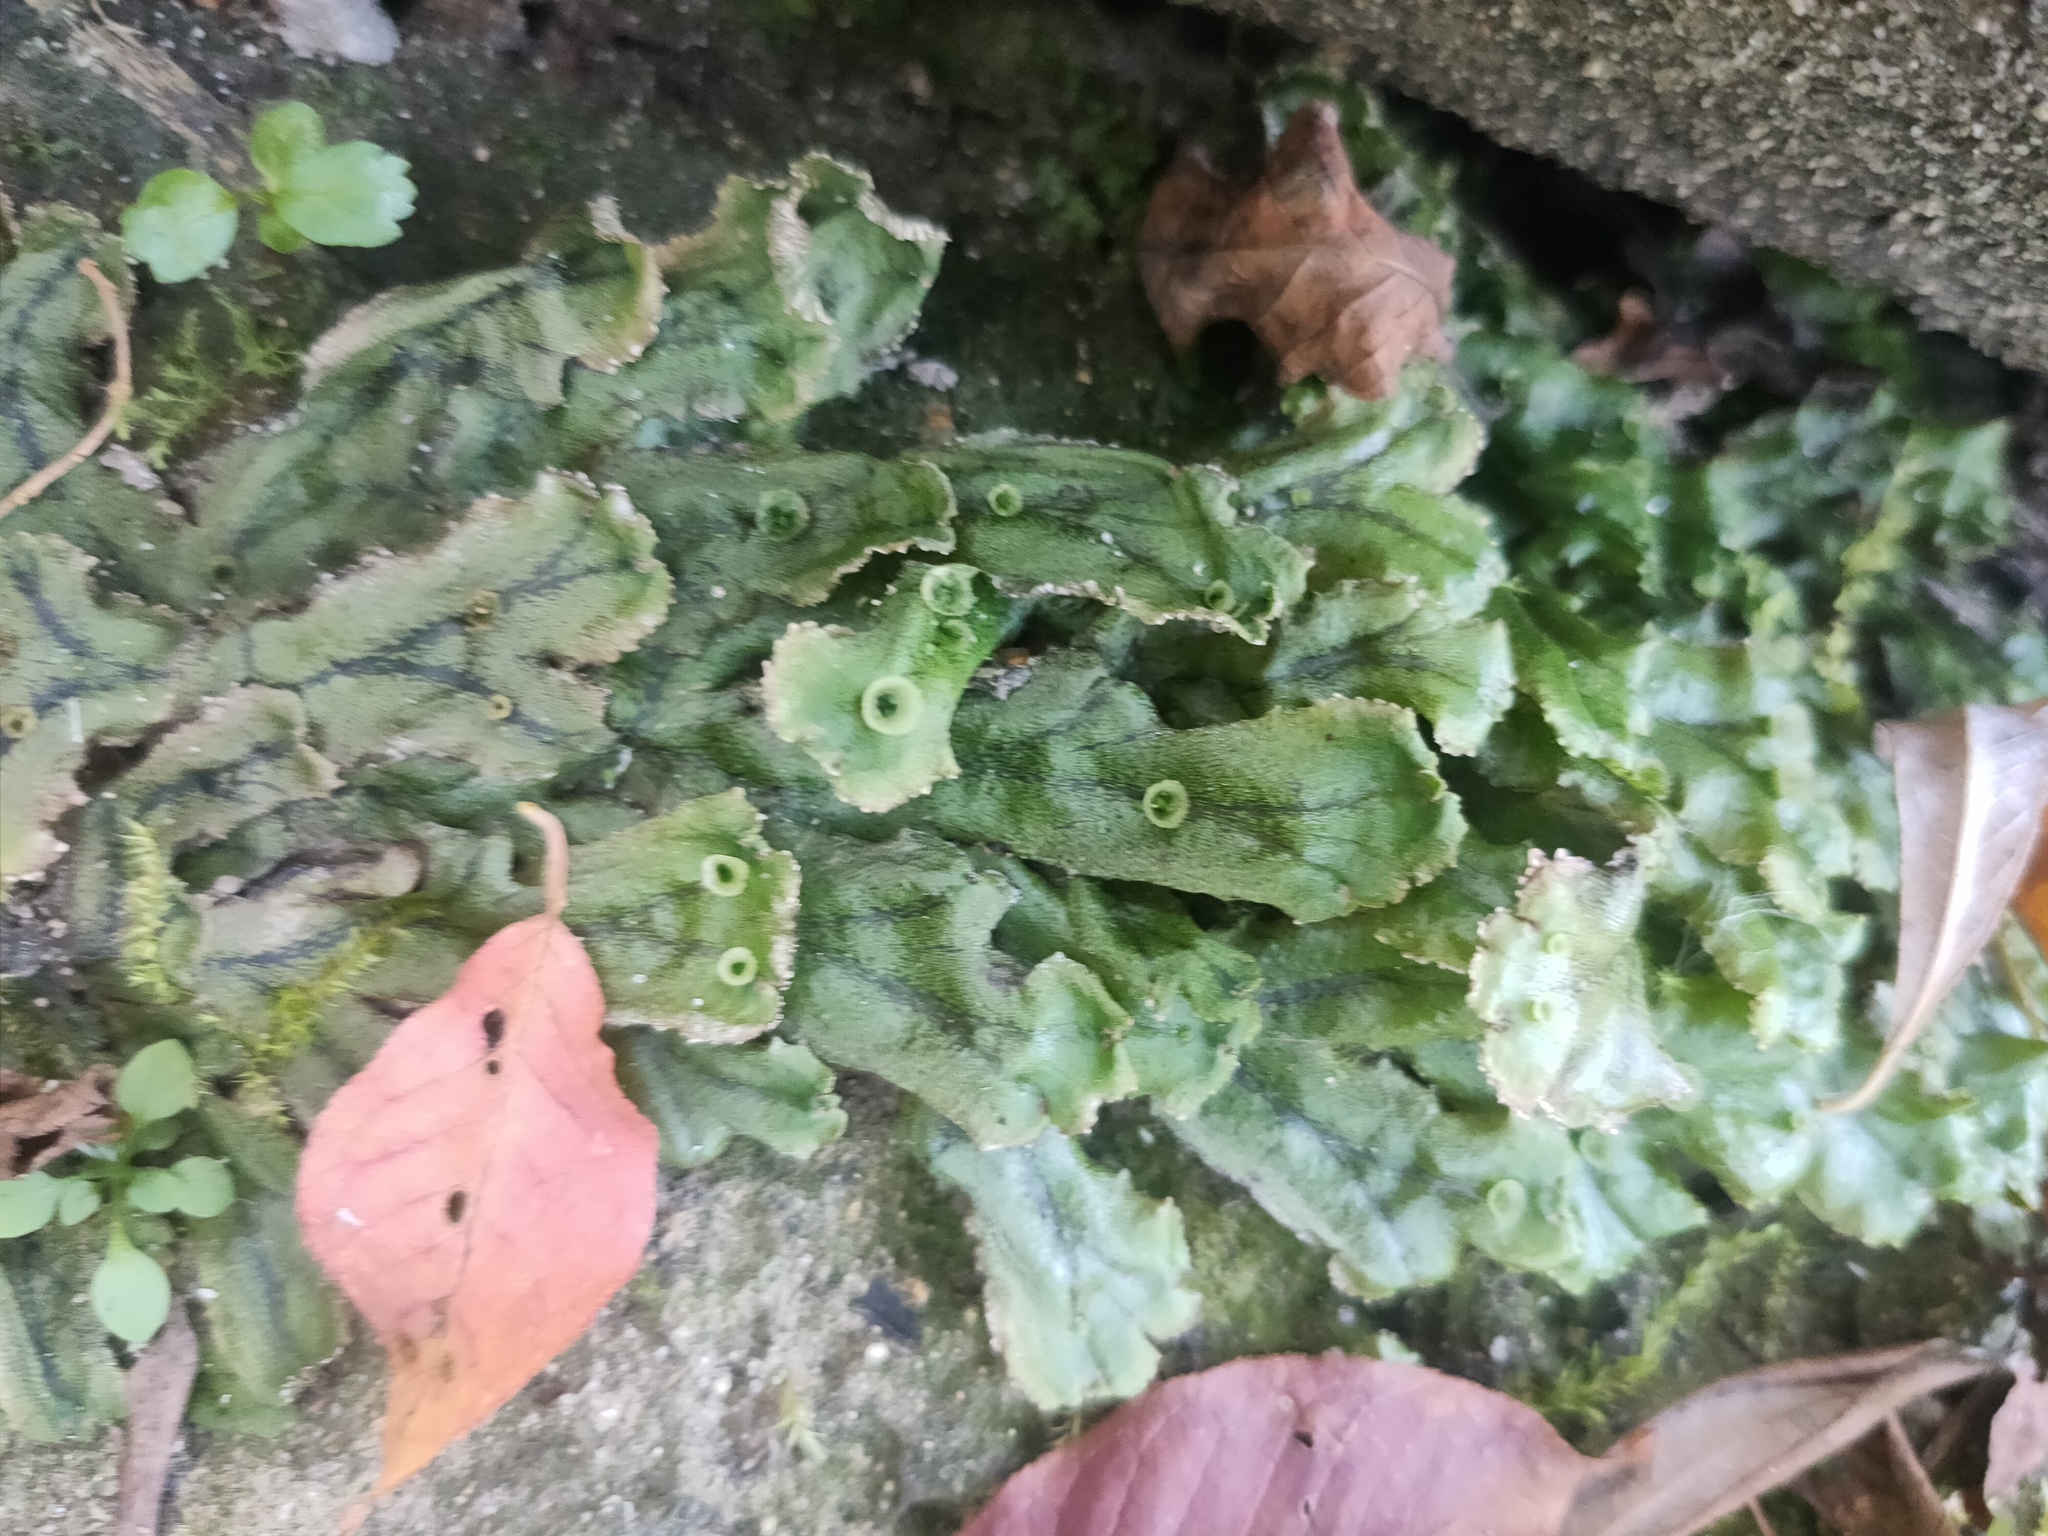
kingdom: Plantae
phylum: Marchantiophyta
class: Marchantiopsida
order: Marchantiales
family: Marchantiaceae
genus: Marchantia
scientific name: Marchantia polymorpha
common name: Common liverwort
